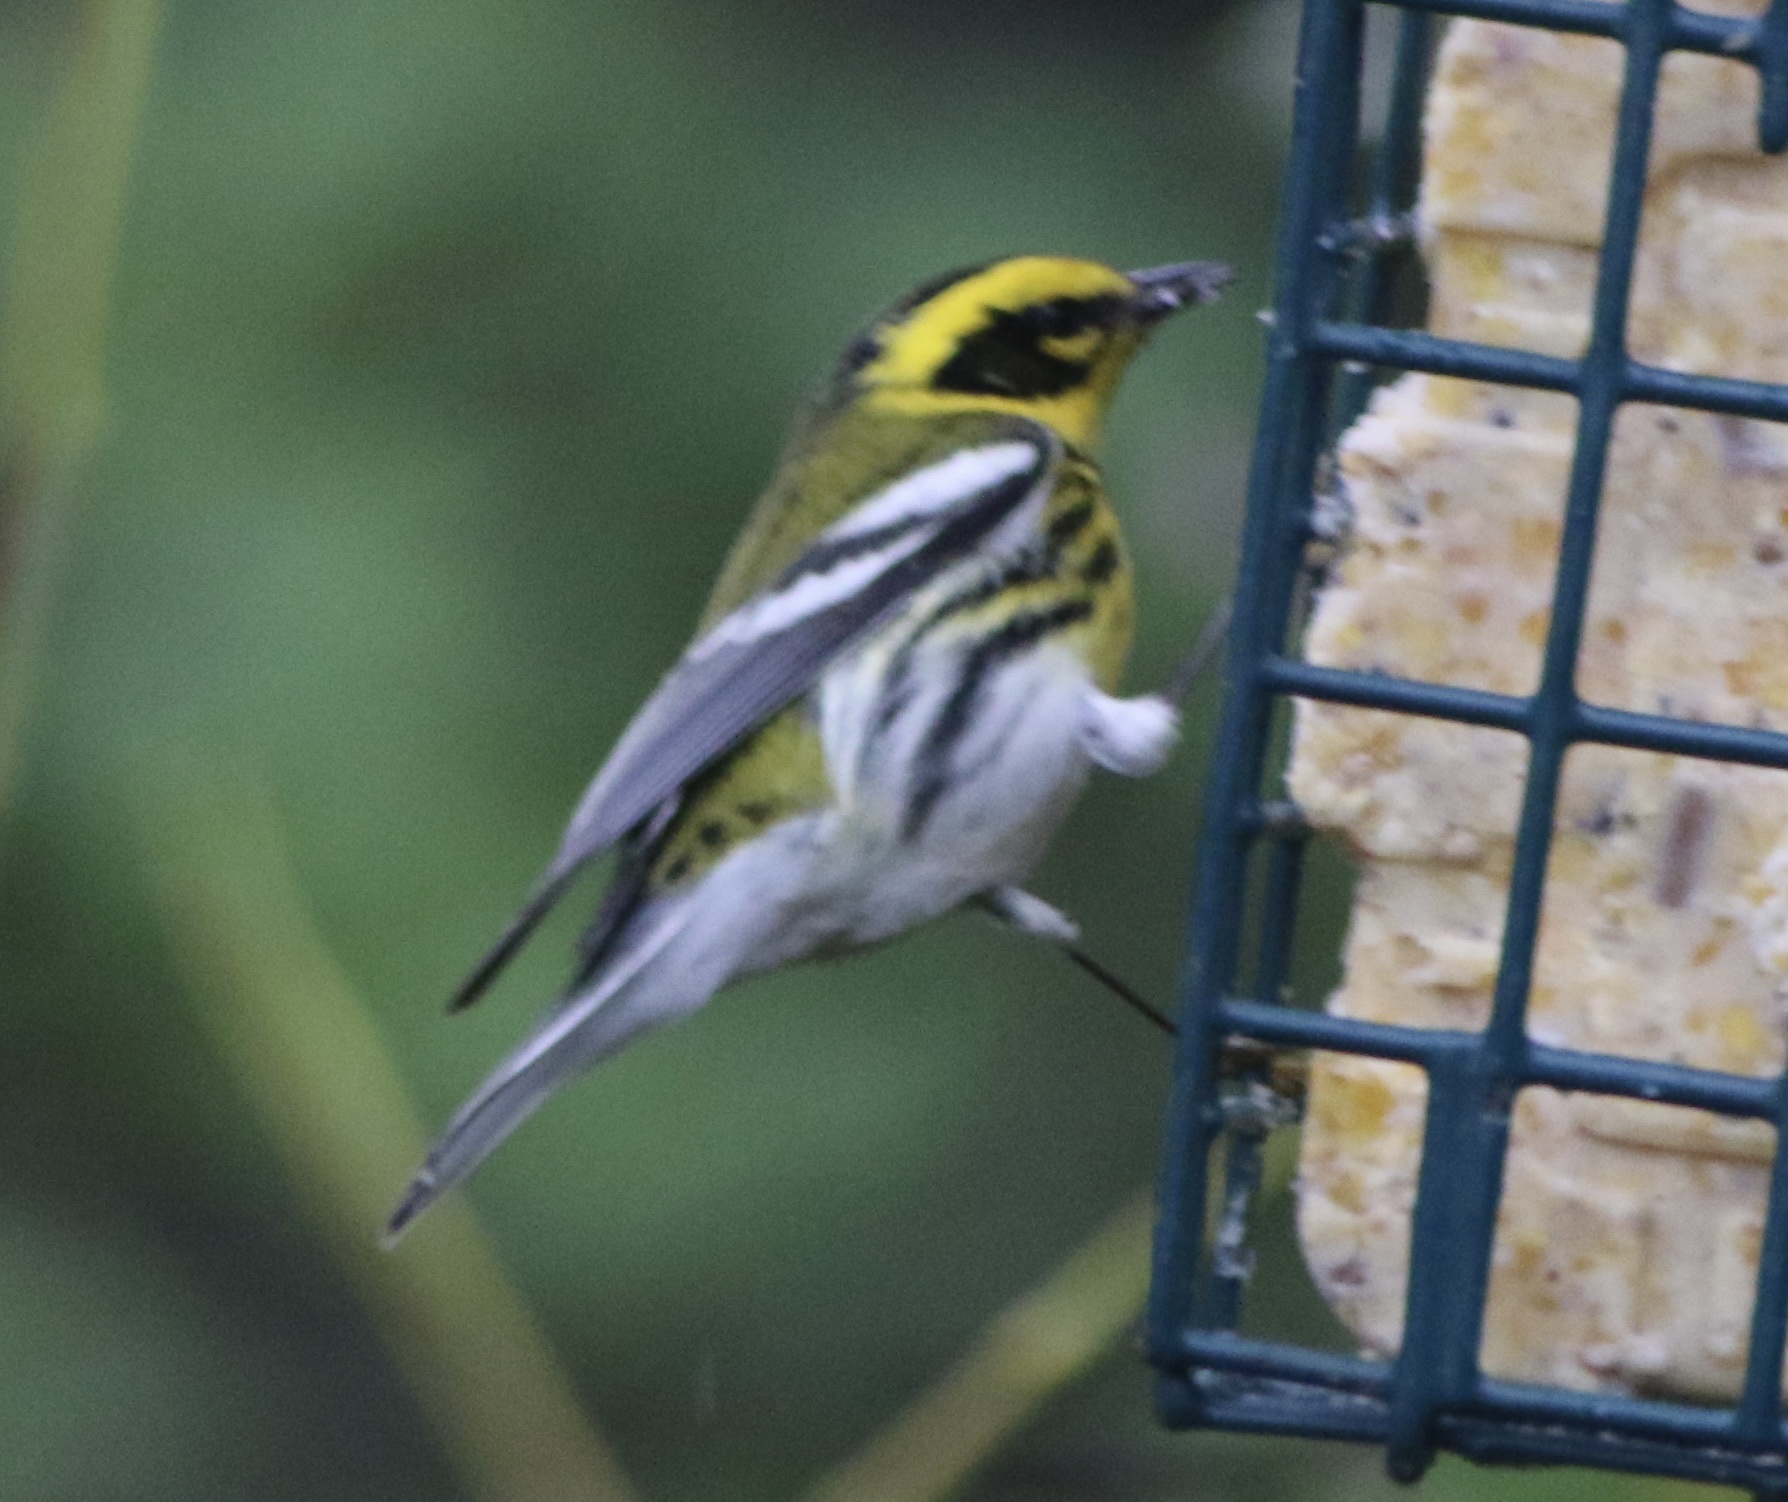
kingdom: Animalia
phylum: Chordata
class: Aves
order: Passeriformes
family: Parulidae
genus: Setophaga
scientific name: Setophaga townsendi
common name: Townsend's warbler
